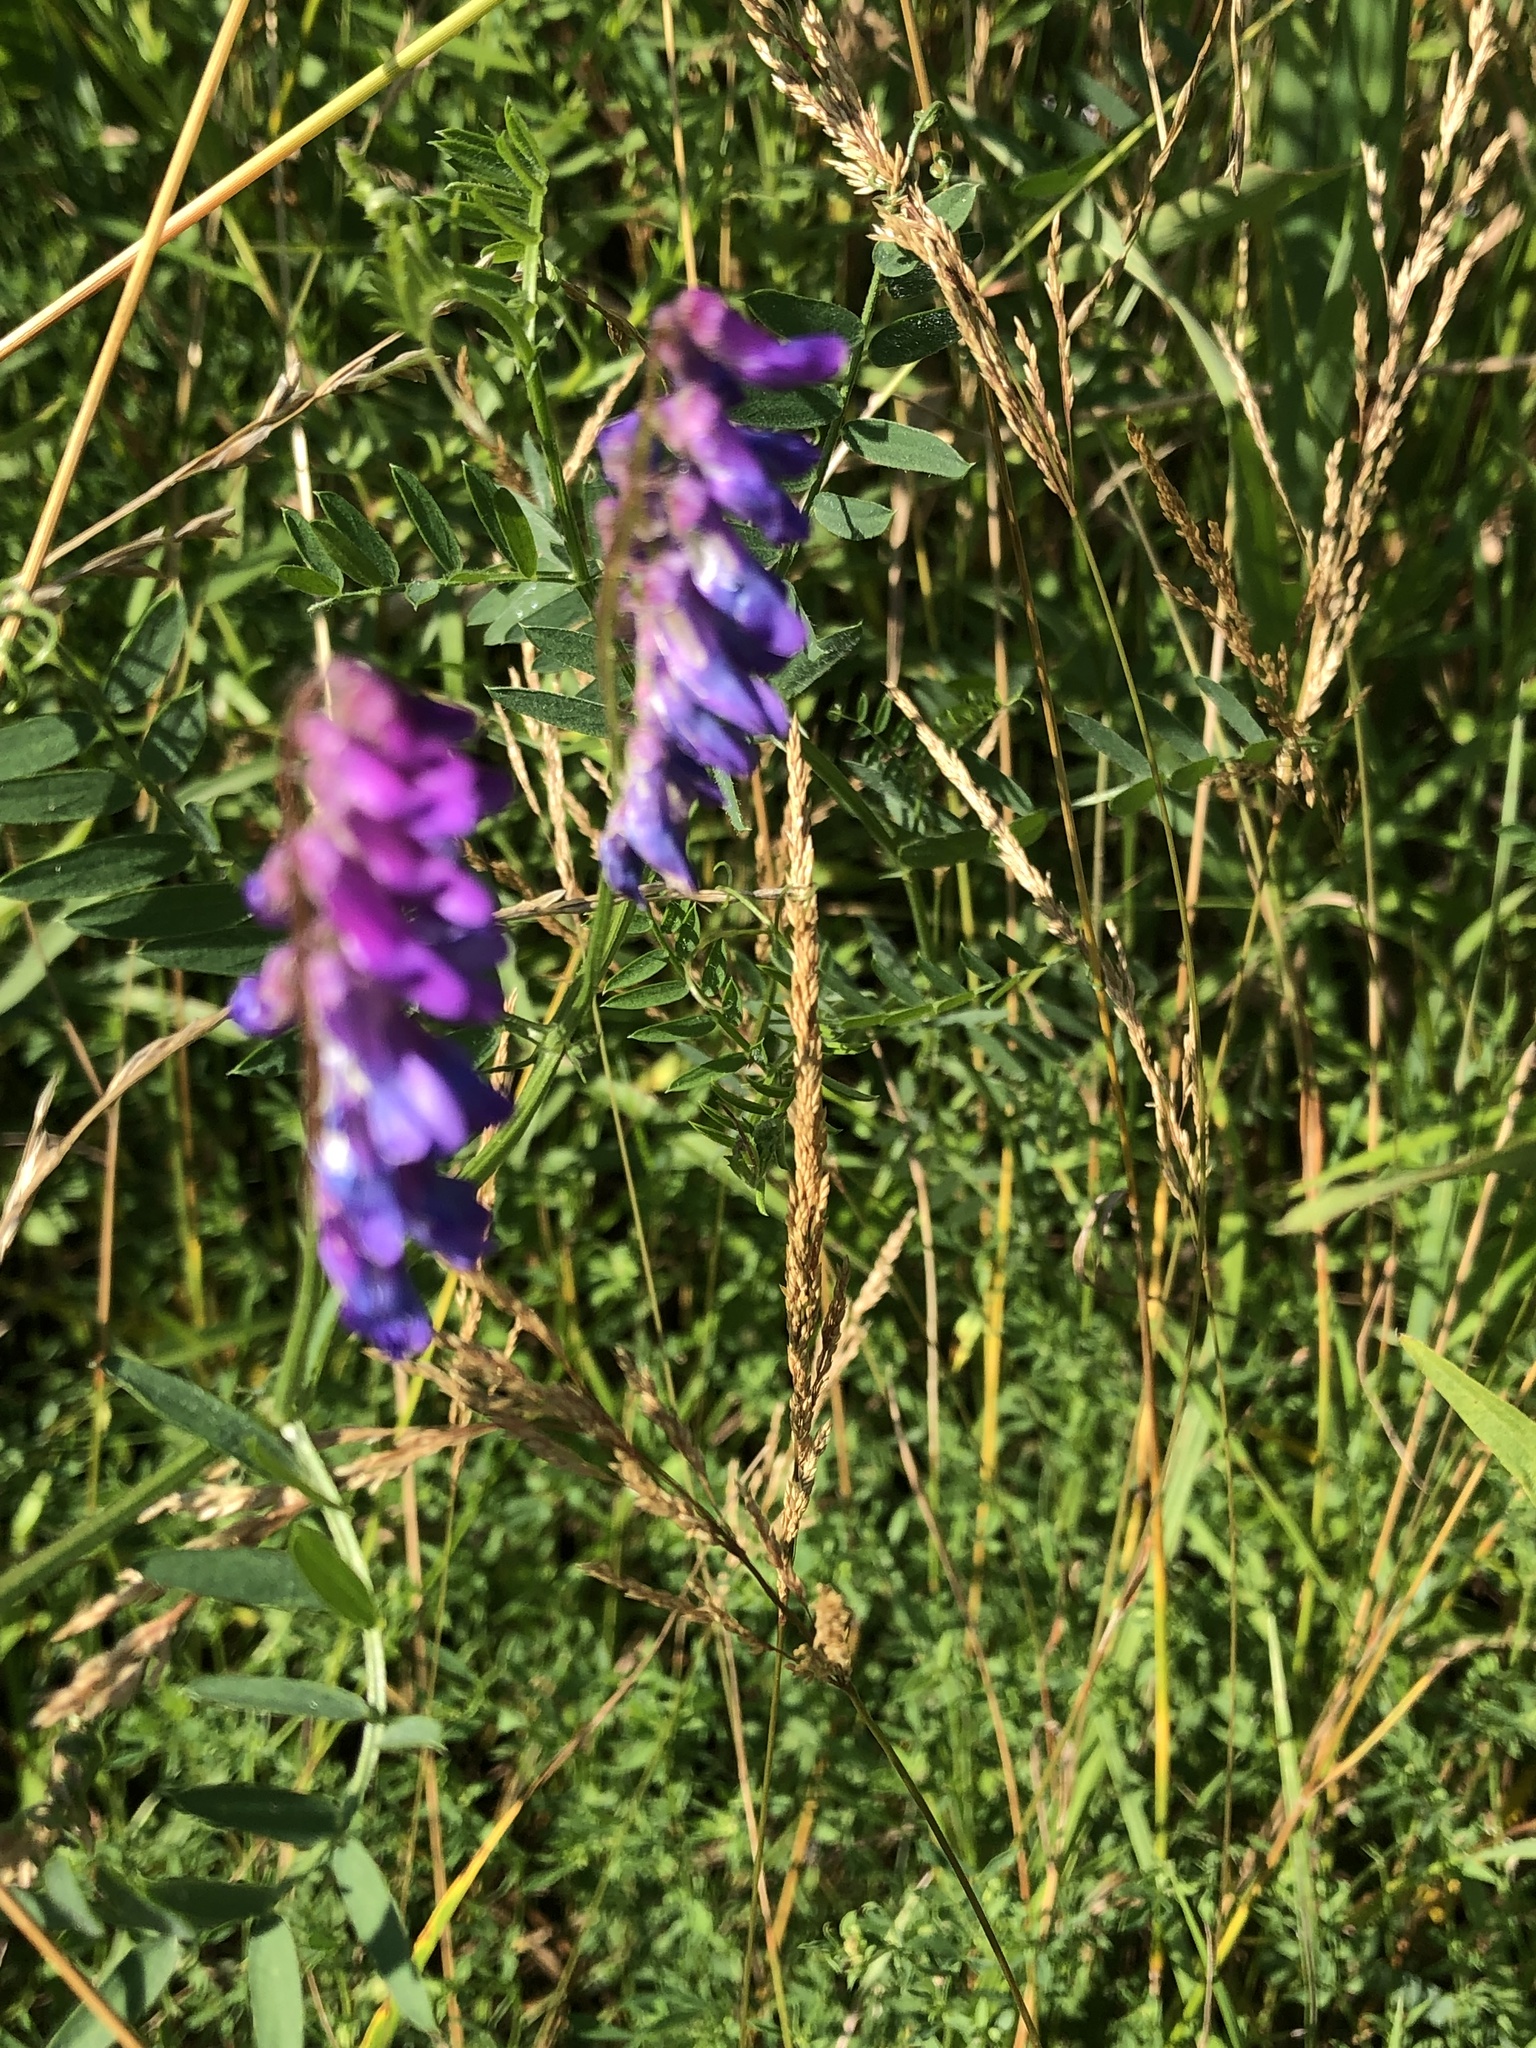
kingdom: Plantae
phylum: Tracheophyta
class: Magnoliopsida
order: Fabales
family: Fabaceae
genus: Vicia
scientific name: Vicia cracca
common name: Bird vetch
